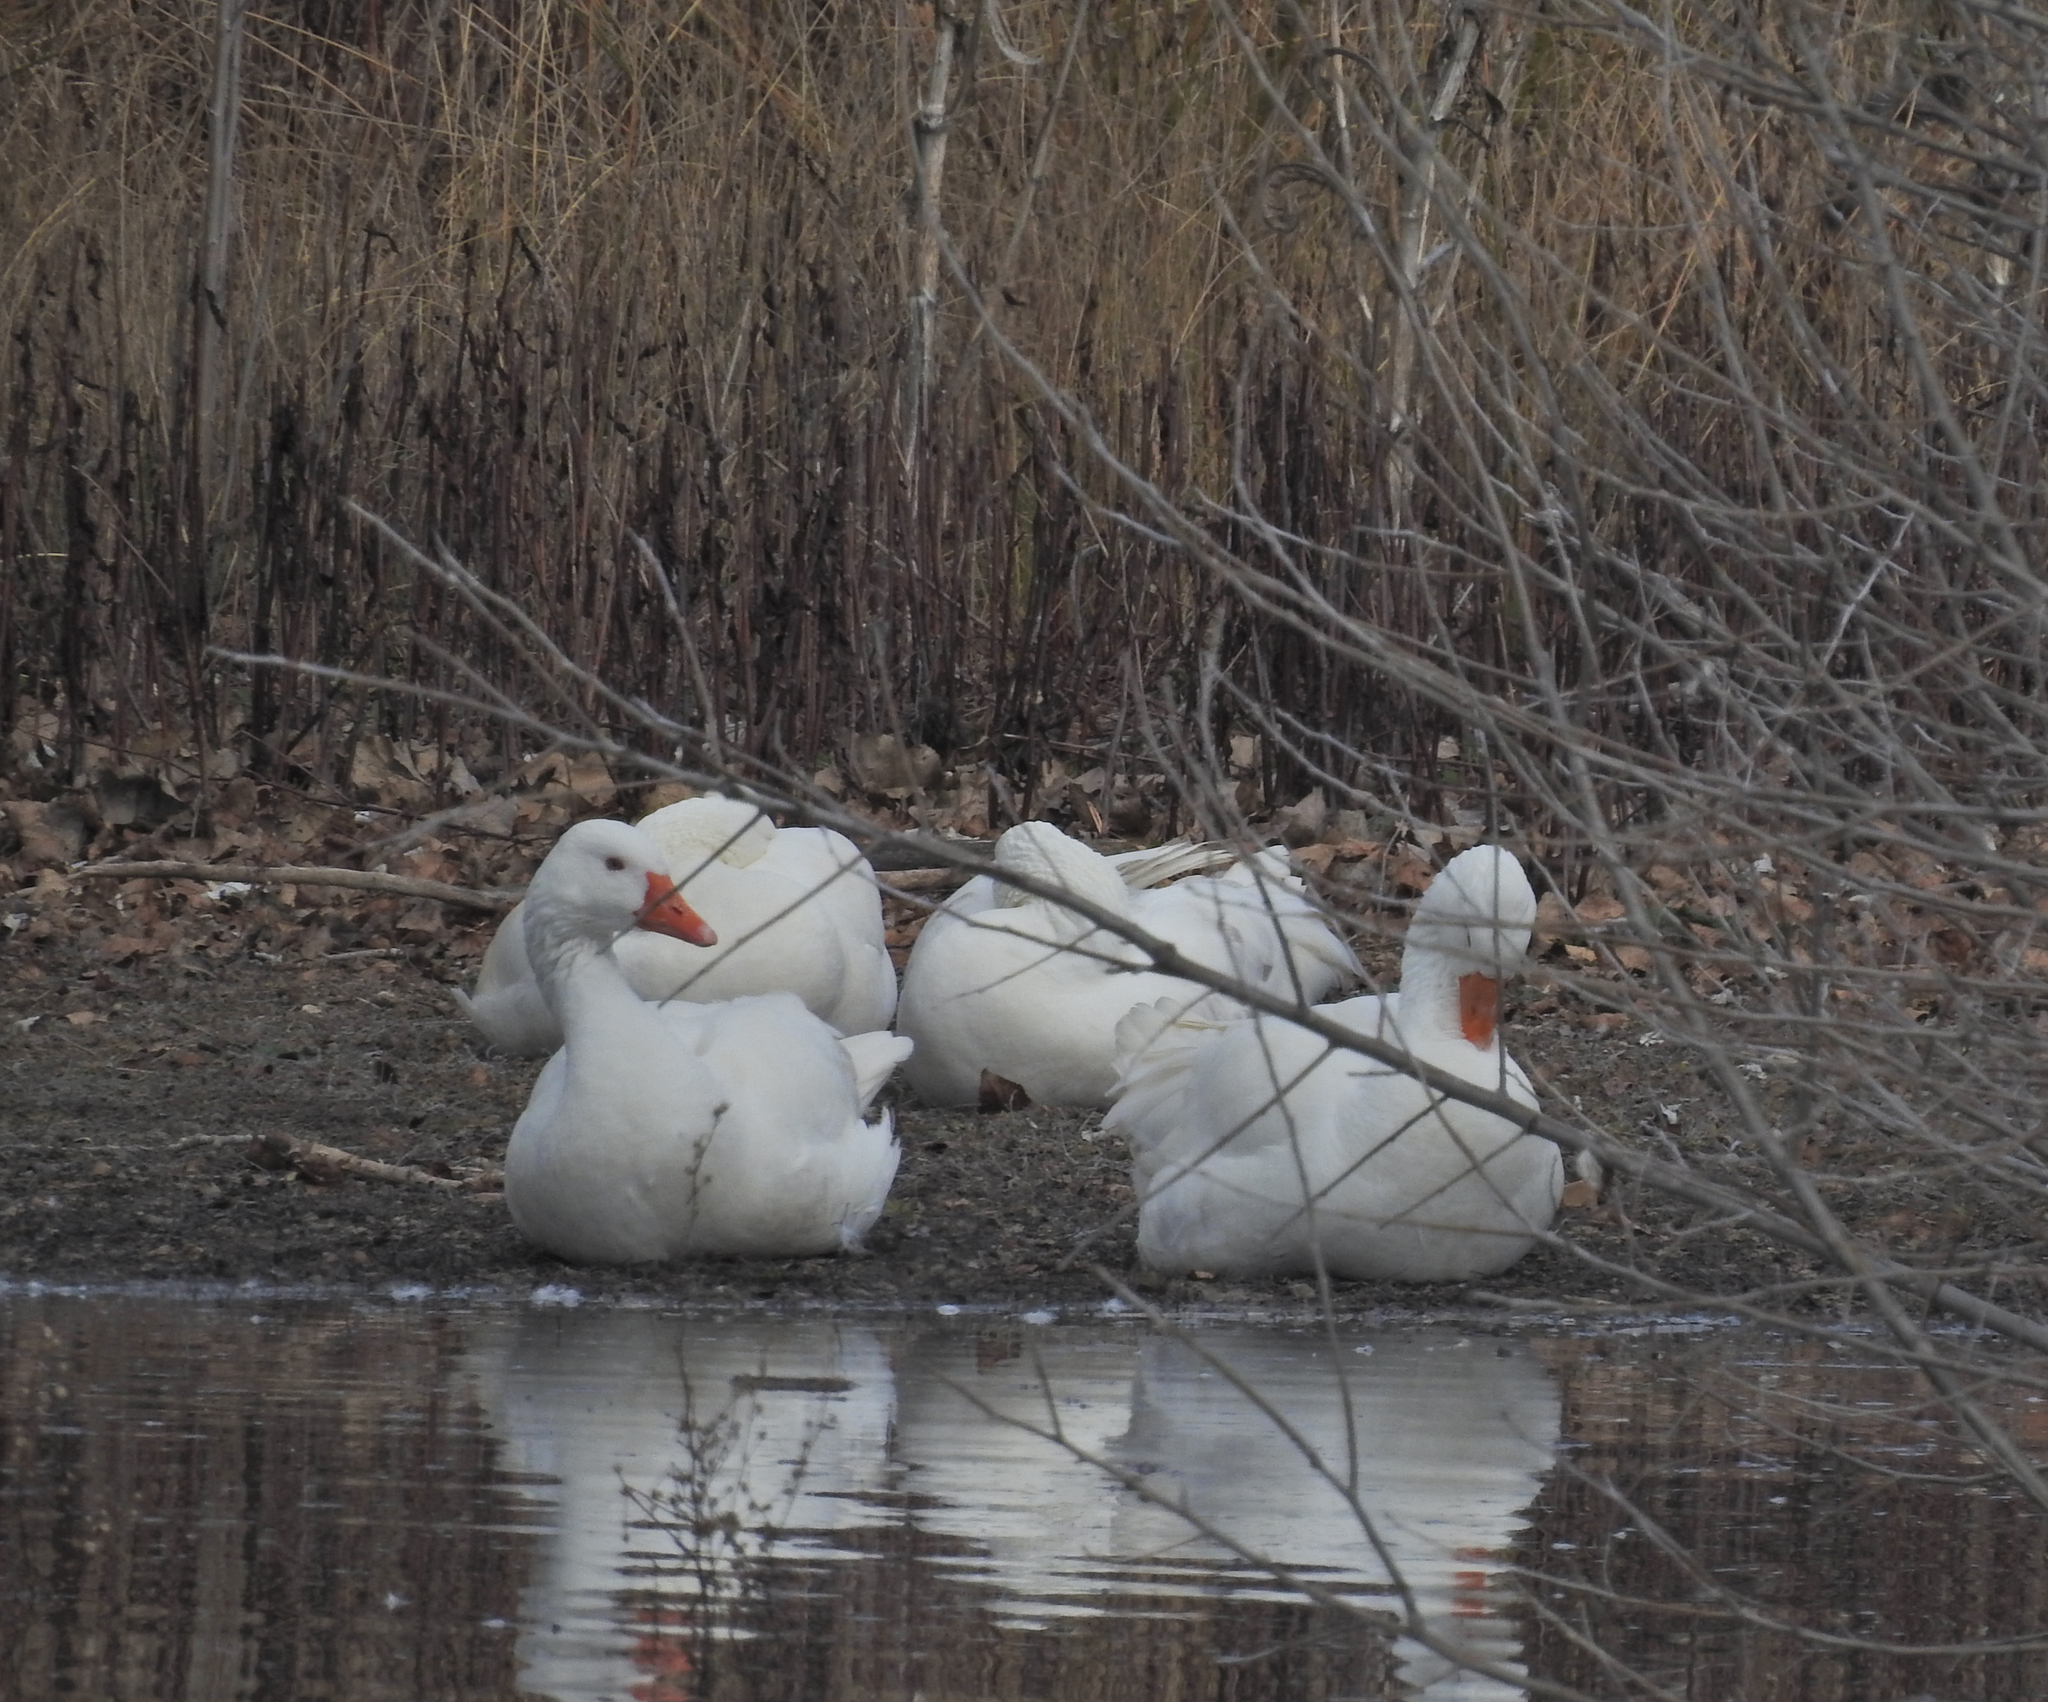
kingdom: Animalia
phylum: Chordata
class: Aves
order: Anseriformes
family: Anatidae
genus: Anser
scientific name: Anser anser
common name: Greylag goose
